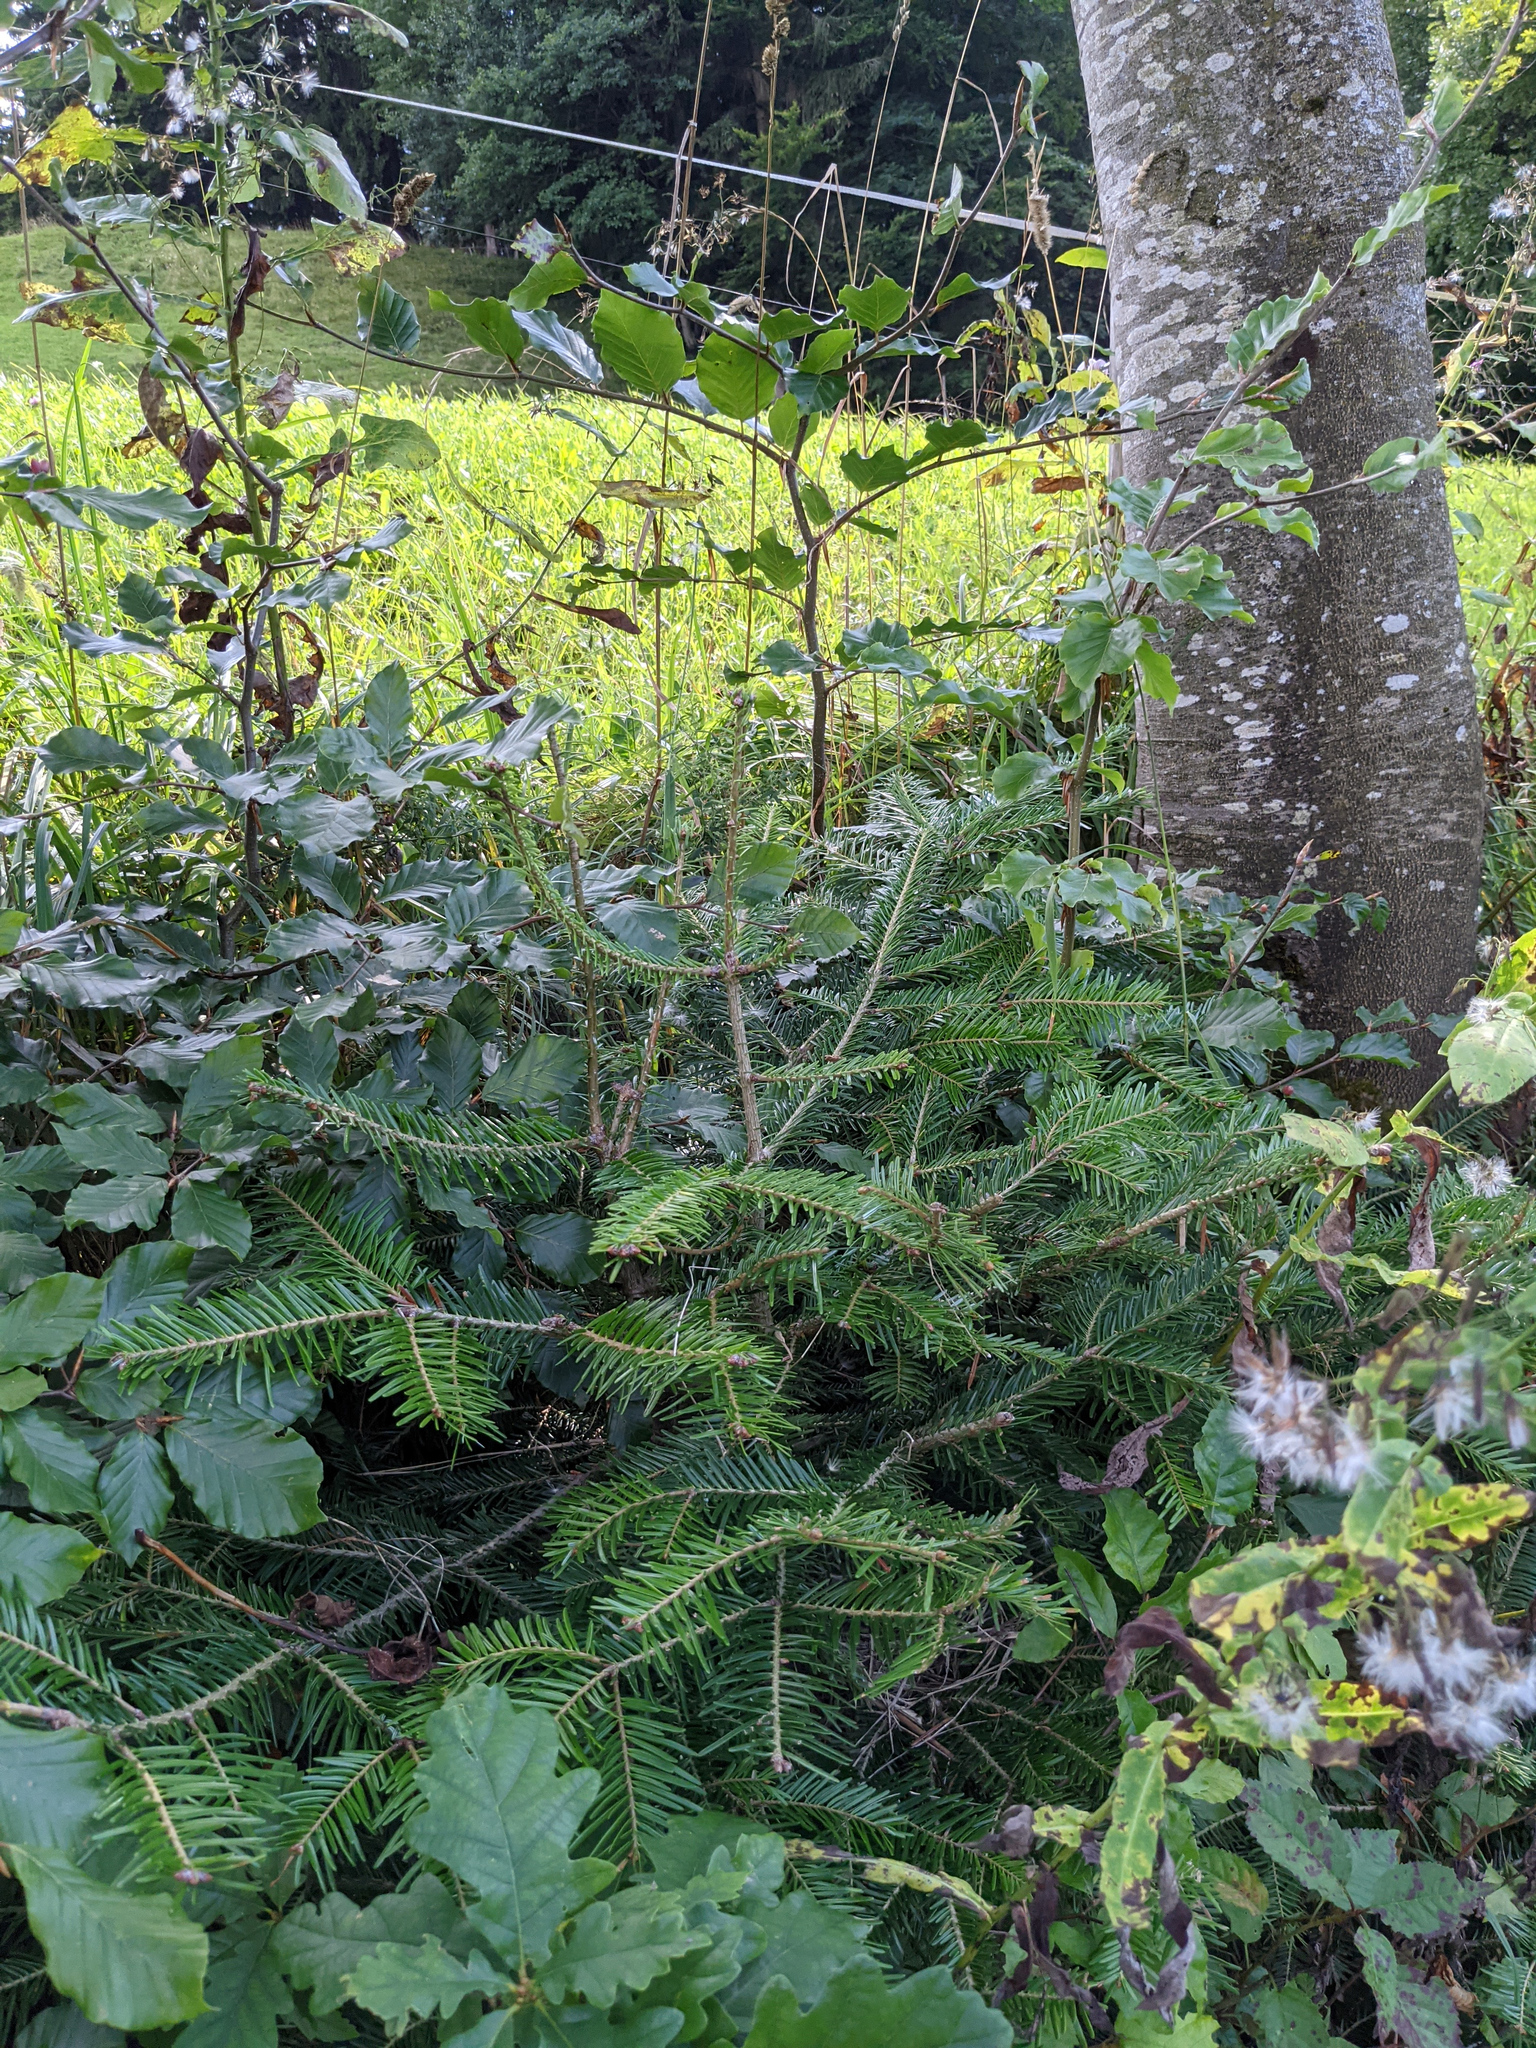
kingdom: Plantae
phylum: Tracheophyta
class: Pinopsida
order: Pinales
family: Pinaceae
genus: Abies
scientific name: Abies alba
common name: Silver fir
